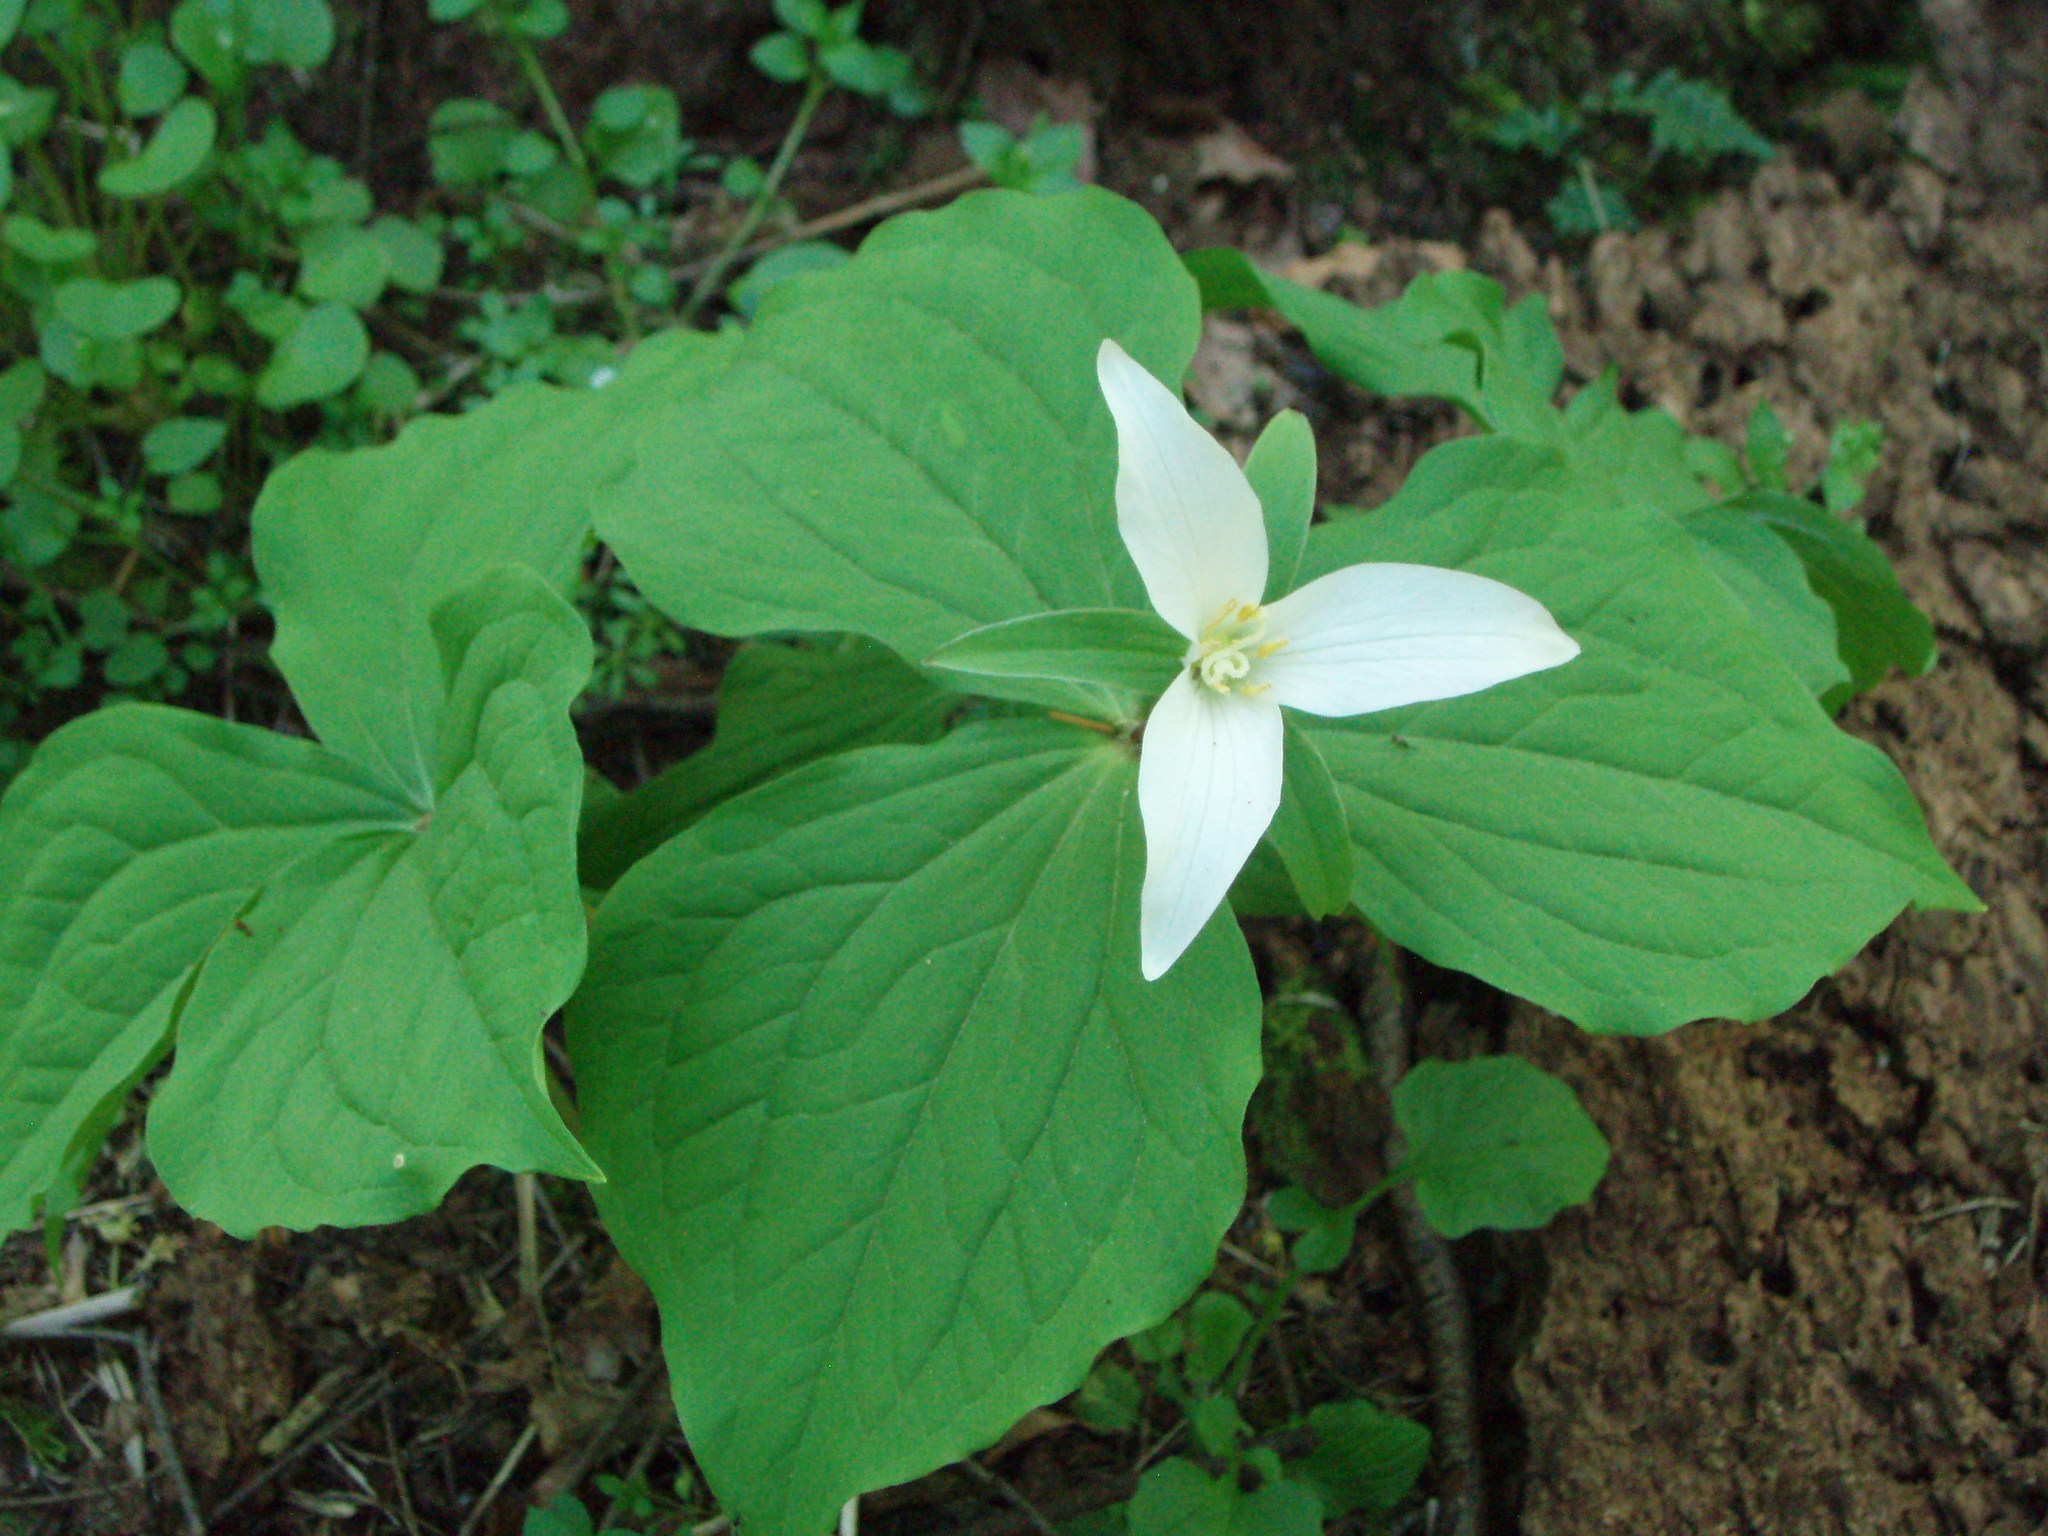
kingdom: Plantae
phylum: Tracheophyta
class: Liliopsida
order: Liliales
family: Melanthiaceae
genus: Trillium
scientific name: Trillium ovatum
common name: Pacific trillium
